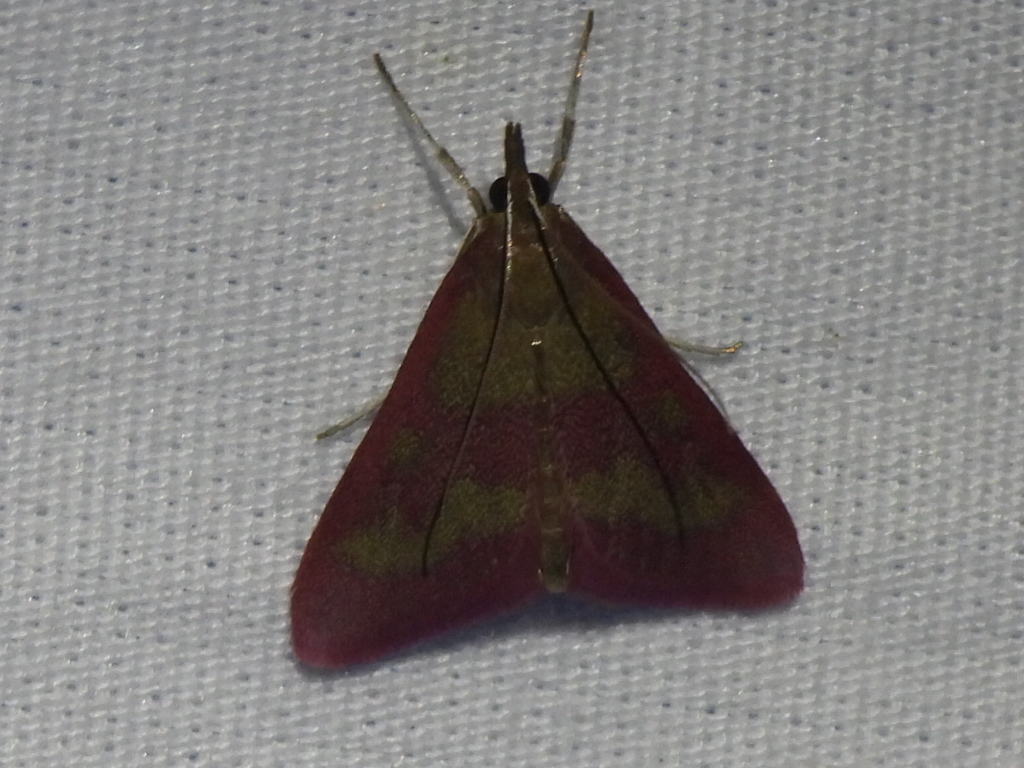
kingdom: Animalia
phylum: Arthropoda
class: Insecta
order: Lepidoptera
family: Crambidae
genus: Pyrausta
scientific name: Pyrausta laticlavia
